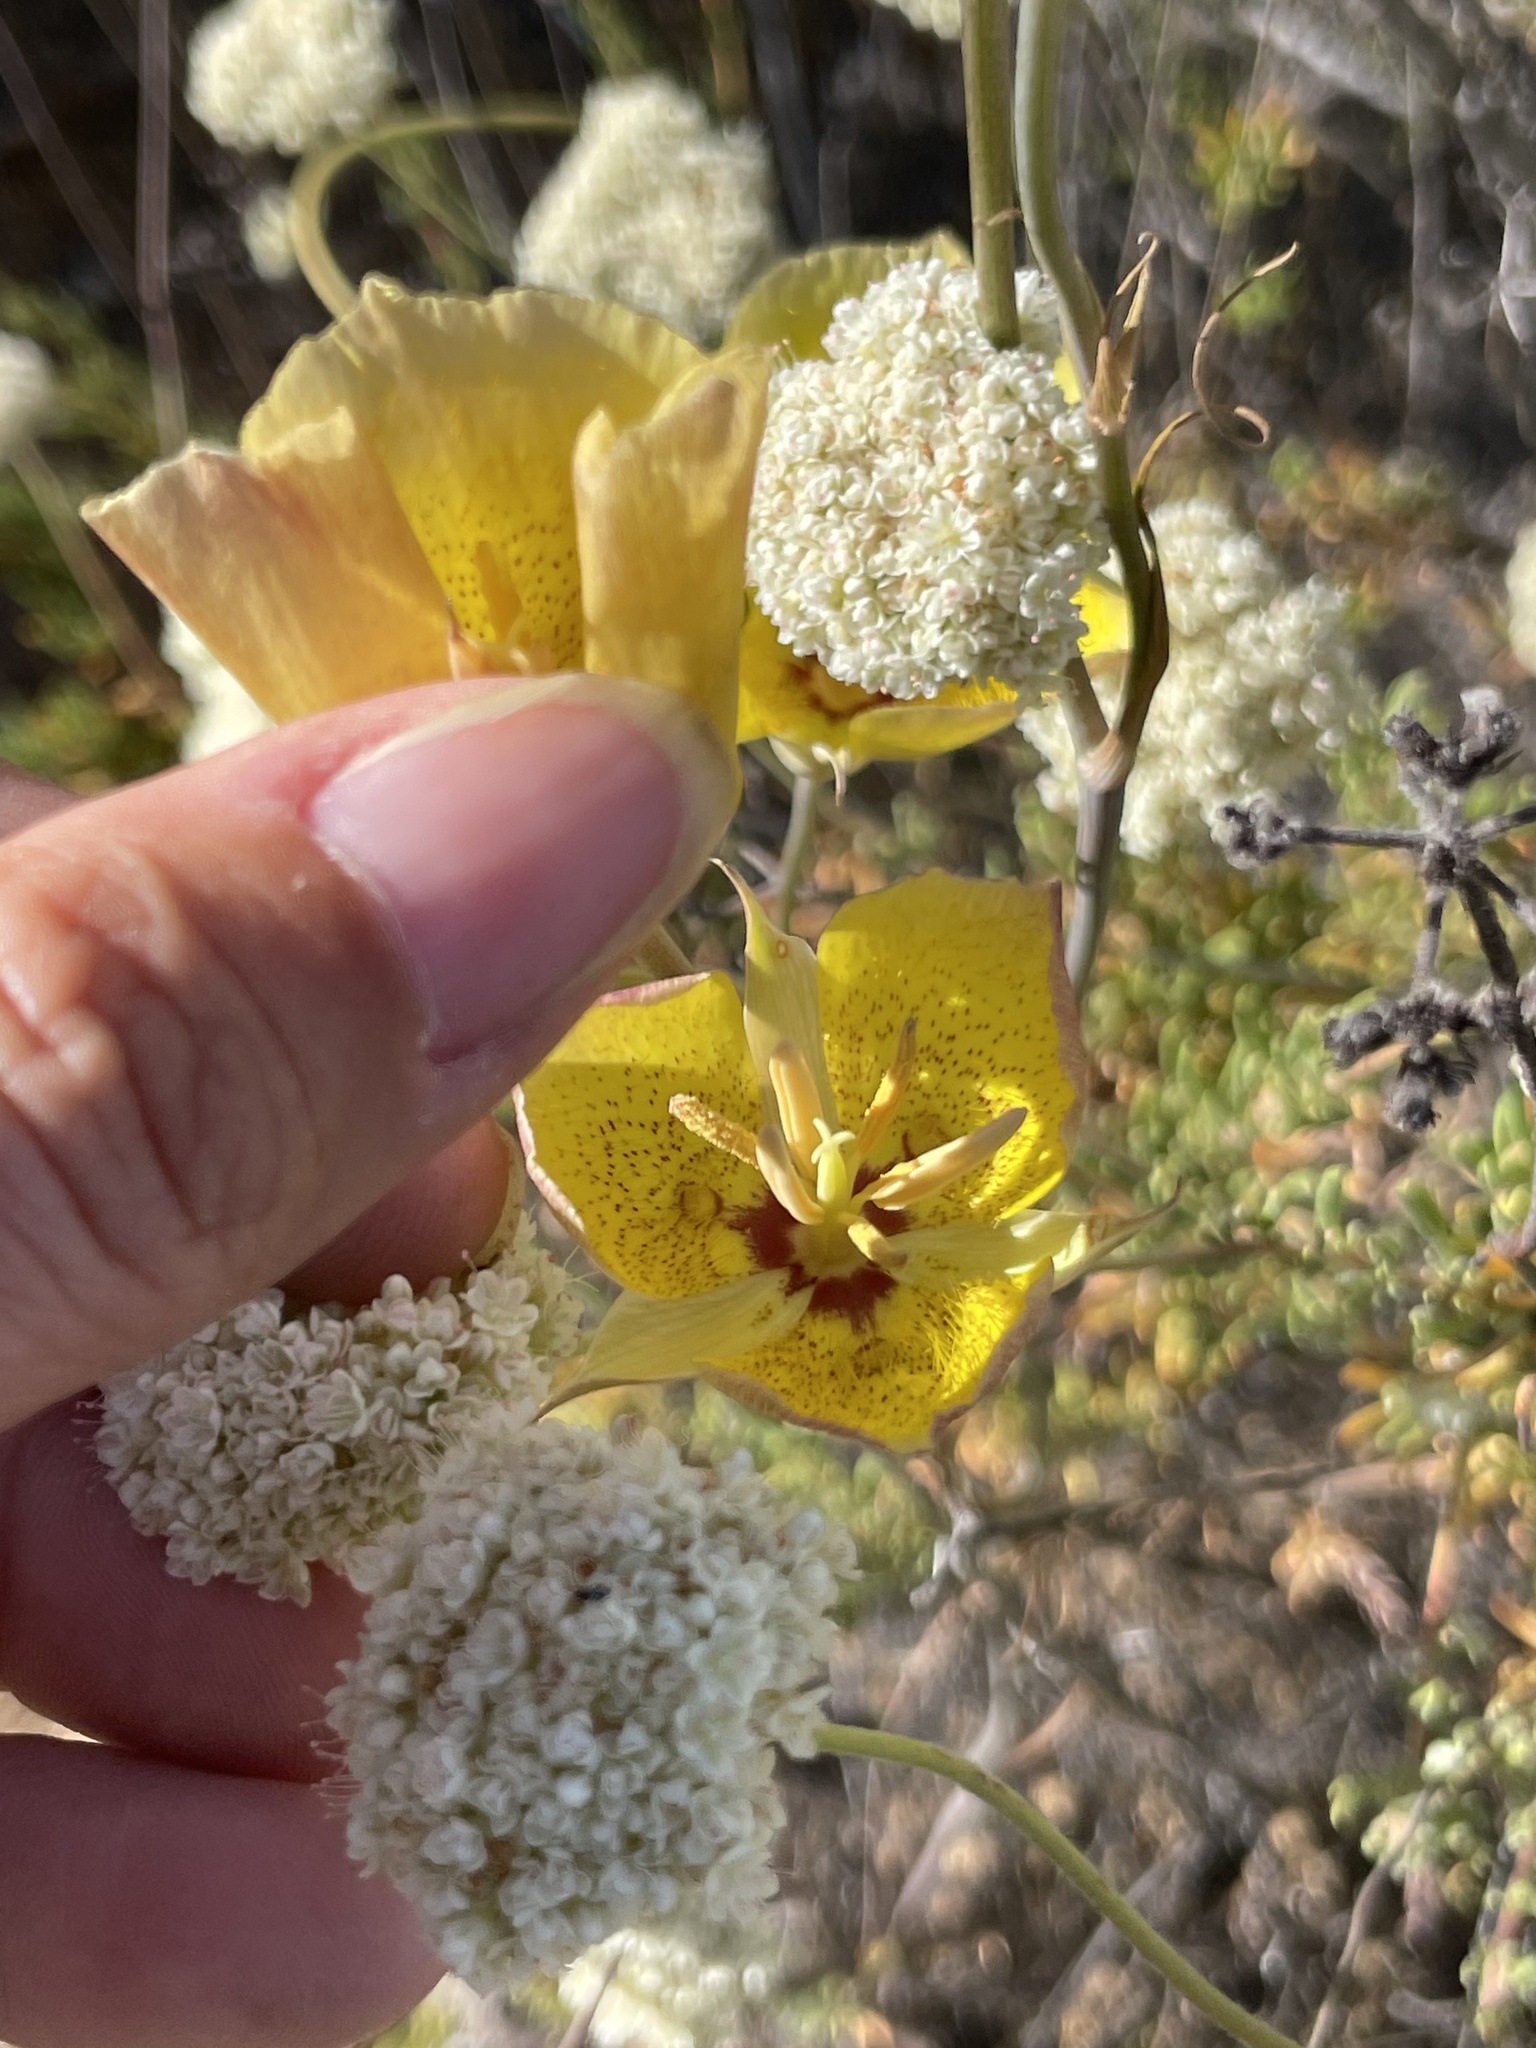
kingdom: Plantae
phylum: Tracheophyta
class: Liliopsida
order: Liliales
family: Liliaceae
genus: Calochortus
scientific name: Calochortus weedii
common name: Weed's mariposa-lily
